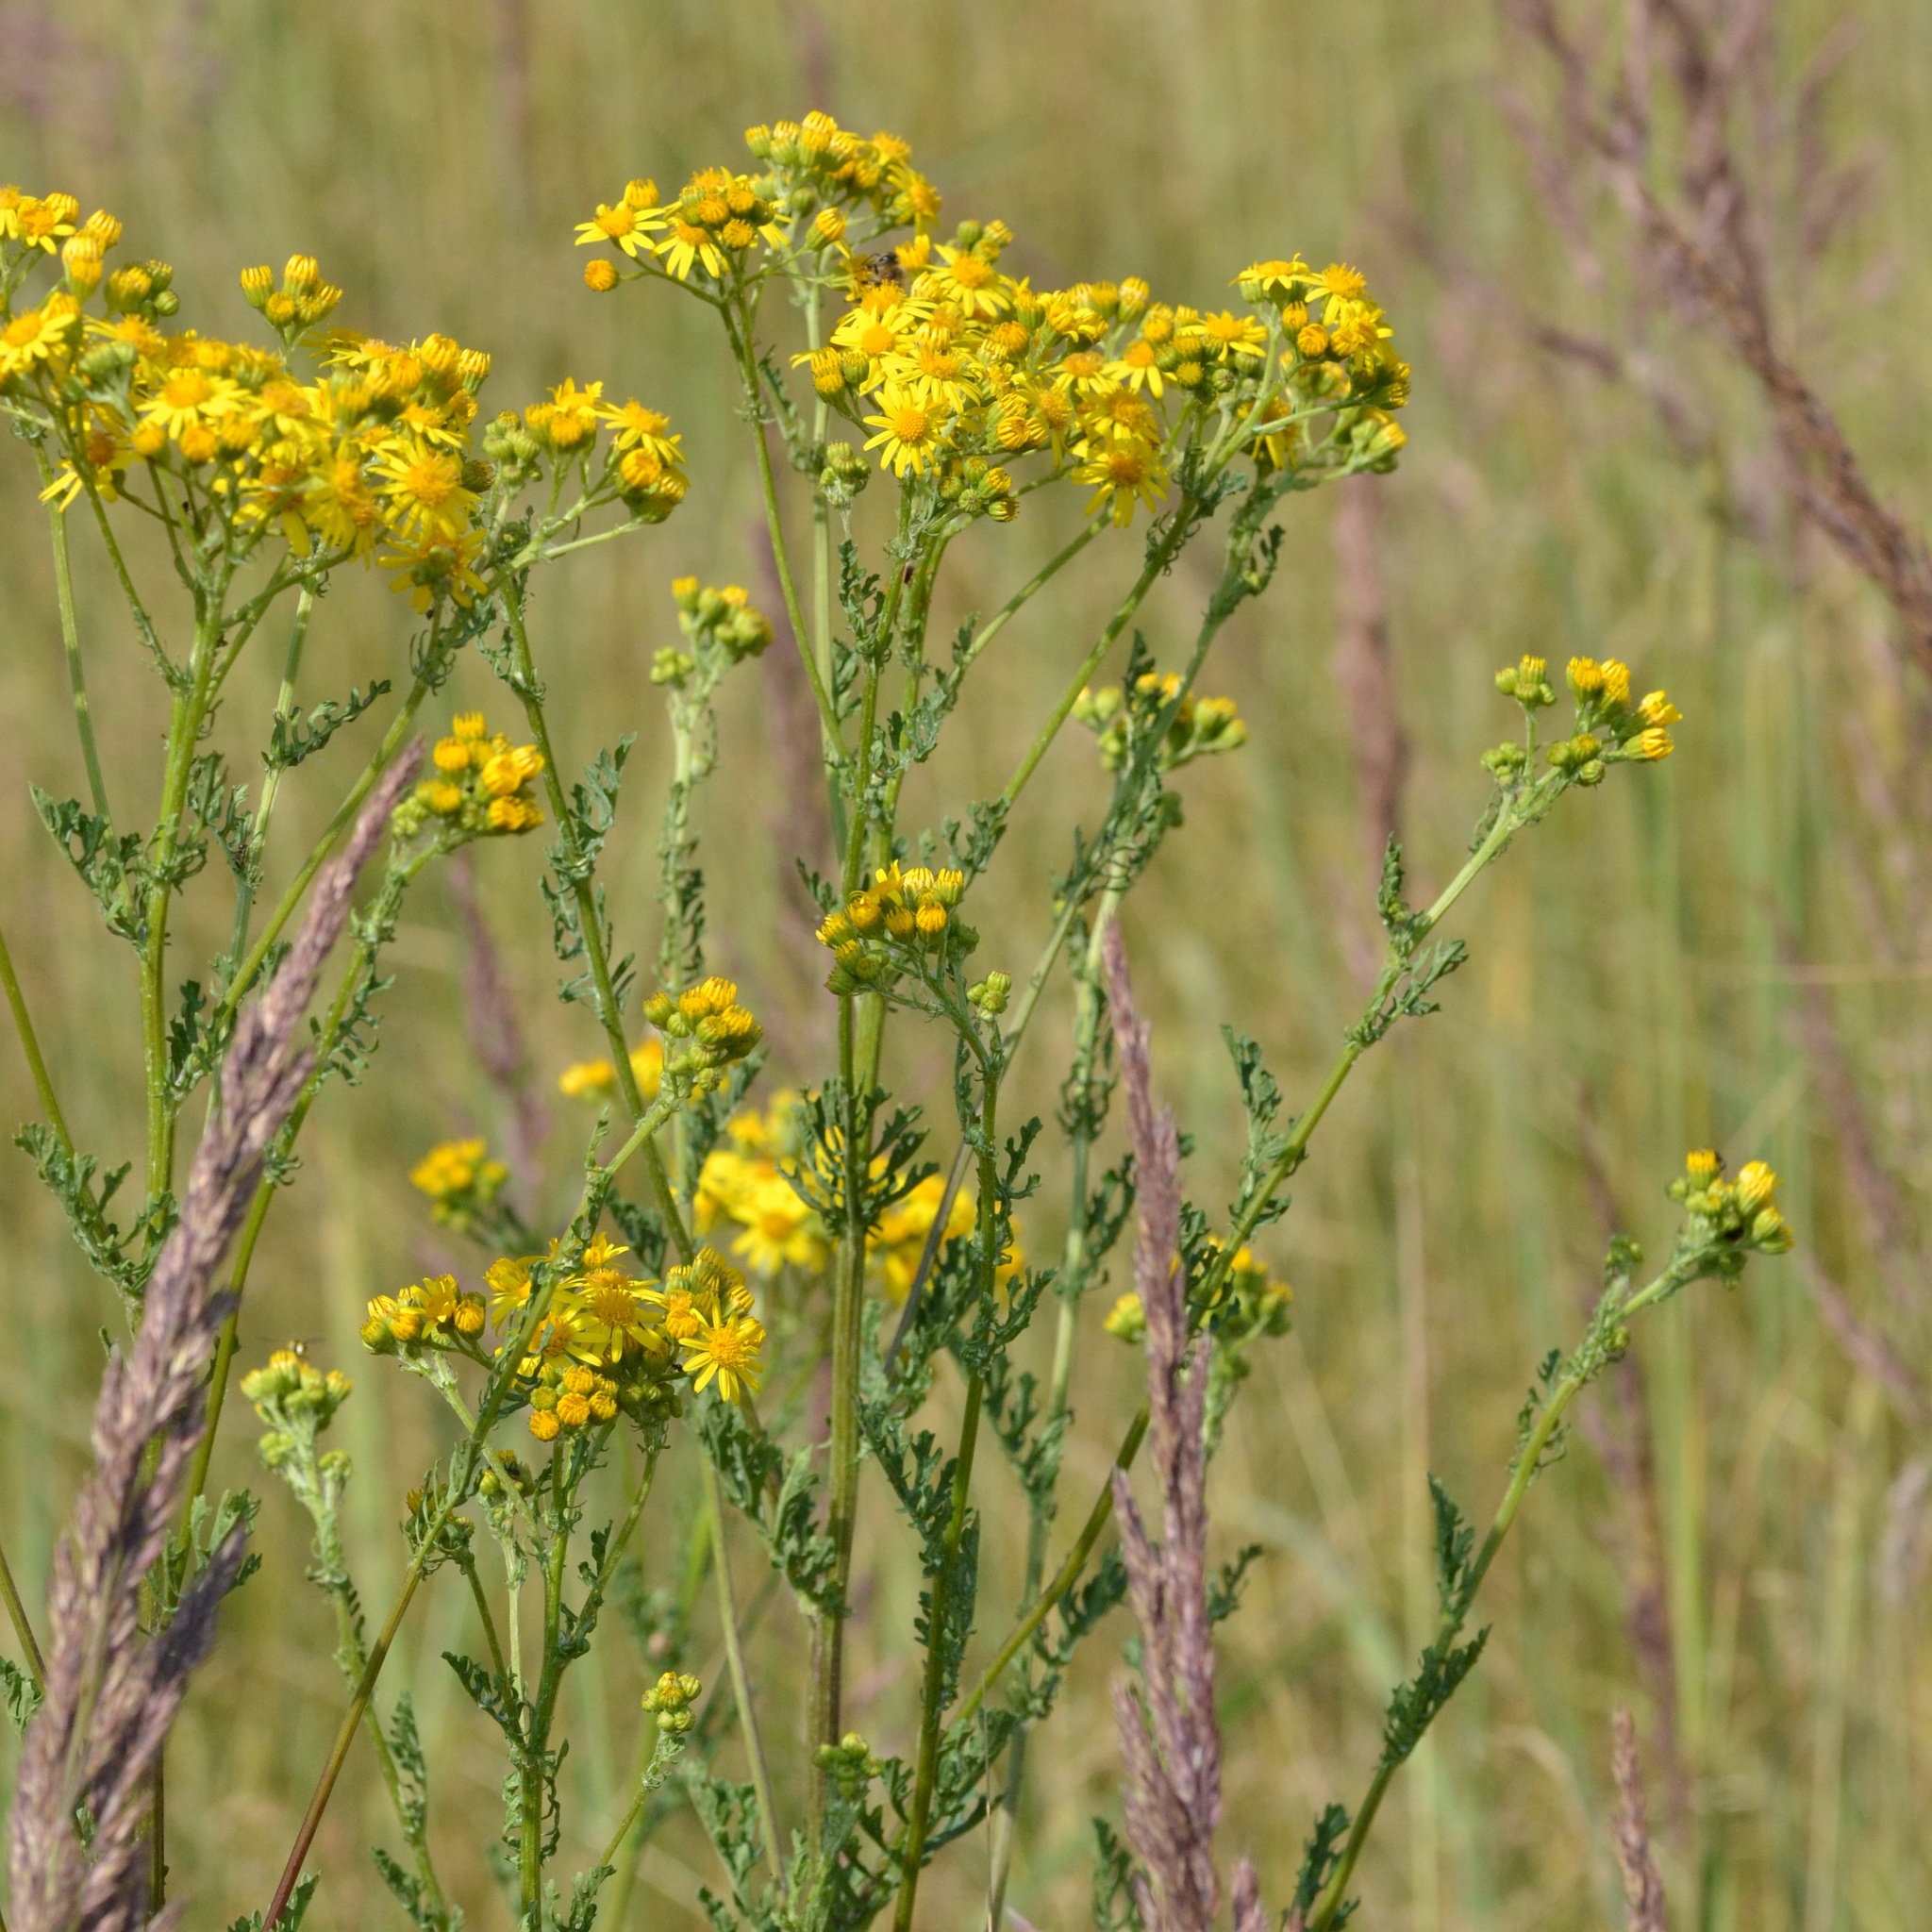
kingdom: Plantae
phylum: Tracheophyta
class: Magnoliopsida
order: Asterales
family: Asteraceae
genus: Jacobaea
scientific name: Jacobaea vulgaris
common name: Stinking willie
